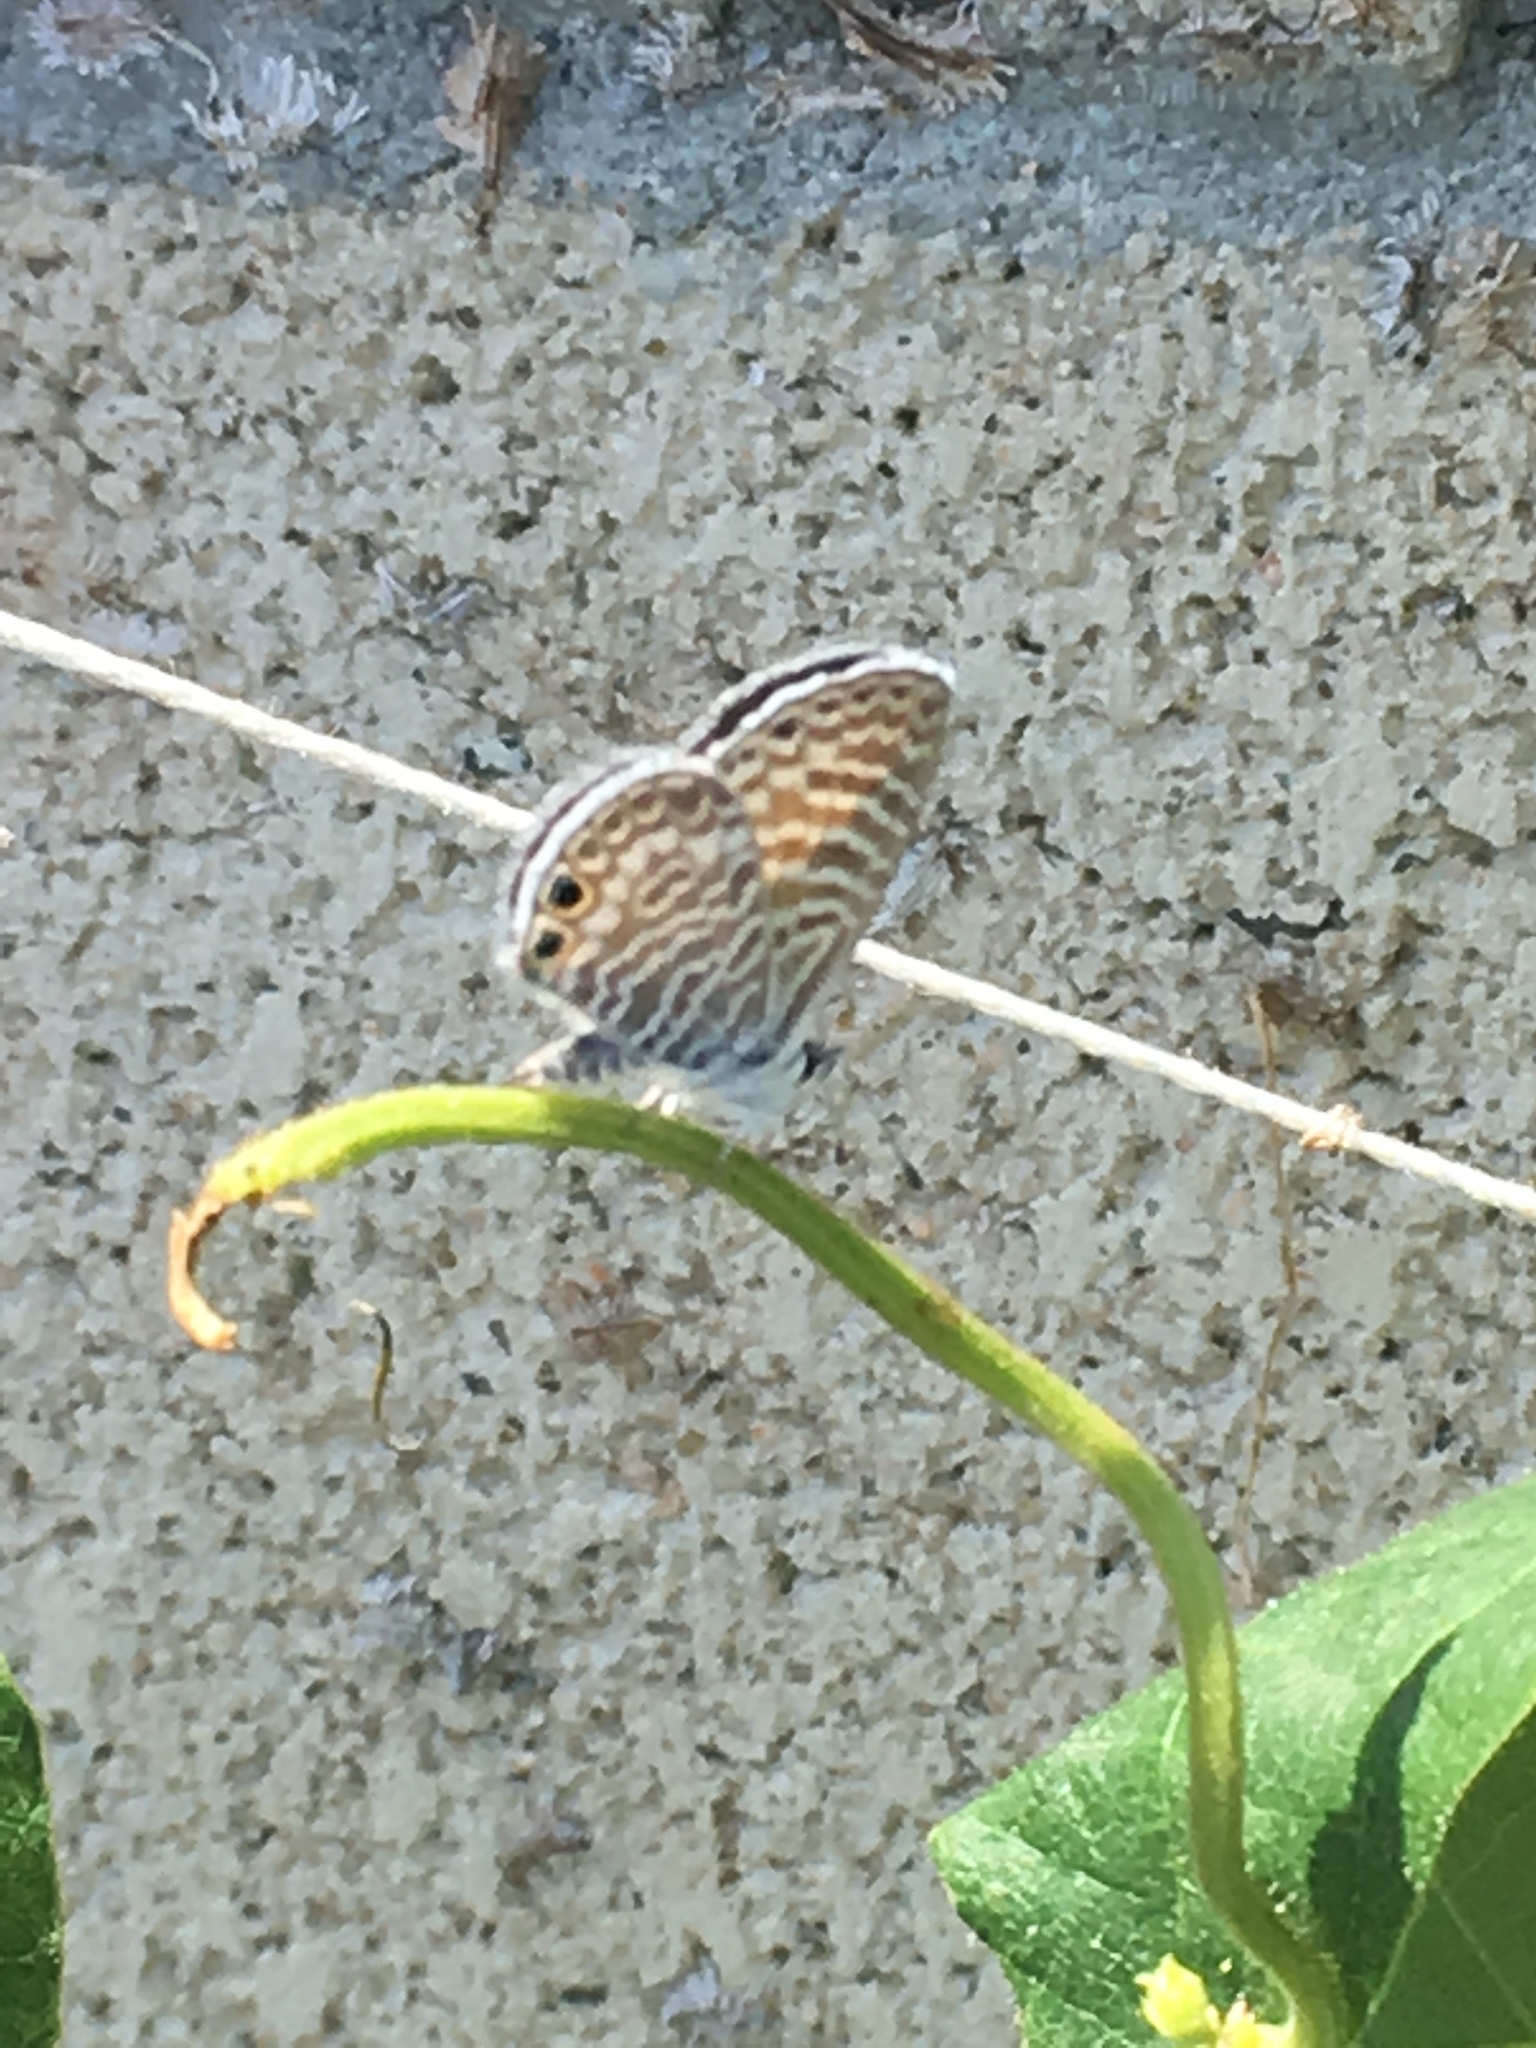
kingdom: Animalia
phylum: Arthropoda
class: Insecta
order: Lepidoptera
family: Lycaenidae
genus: Leptotes
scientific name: Leptotes marina
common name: Marine blue
